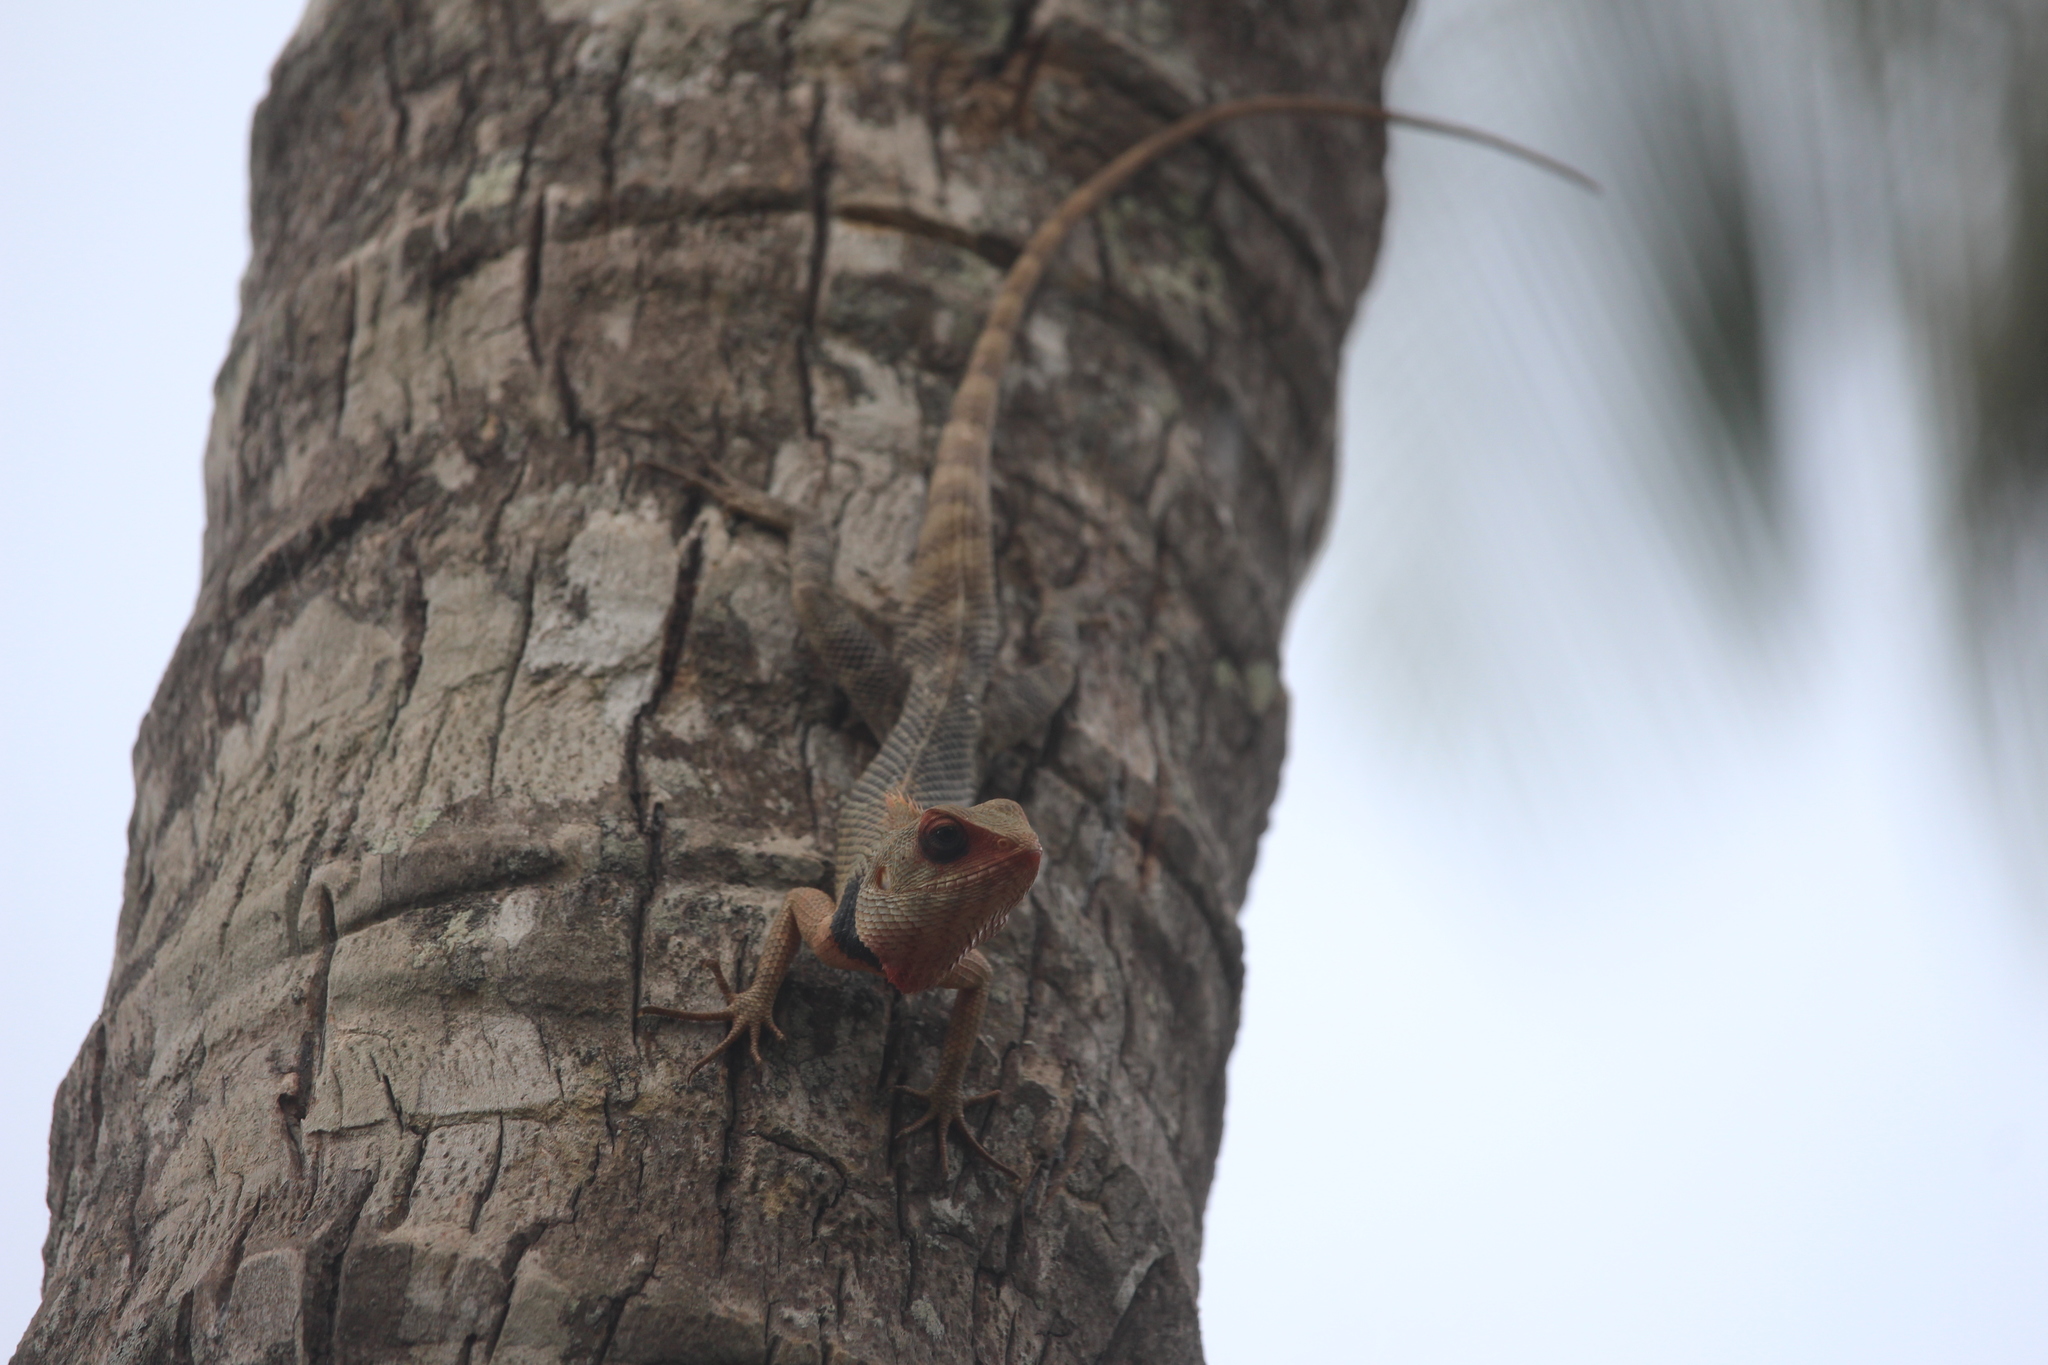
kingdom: Animalia
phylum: Chordata
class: Squamata
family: Agamidae
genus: Calotes
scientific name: Calotes versicolor
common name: Oriental garden lizard
